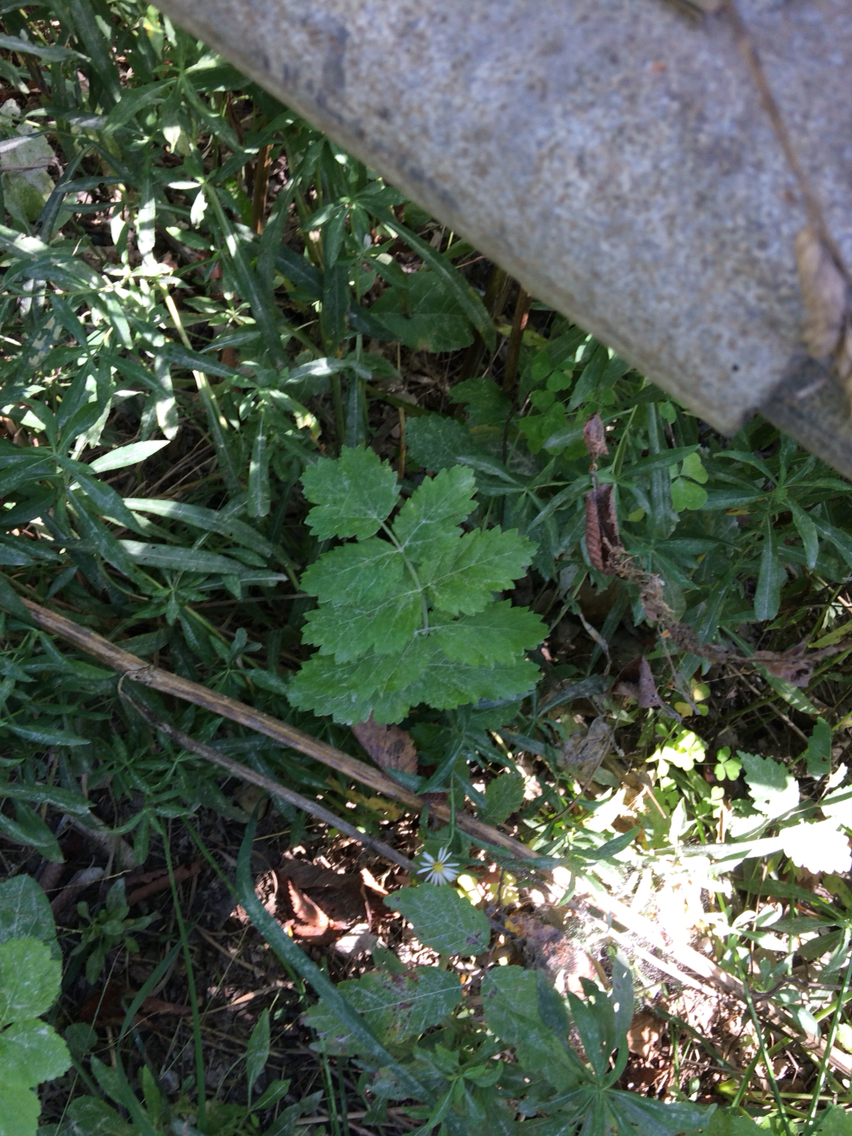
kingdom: Plantae
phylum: Tracheophyta
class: Magnoliopsida
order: Apiales
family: Apiaceae
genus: Pastinaca
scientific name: Pastinaca sativa
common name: Wild parsnip
